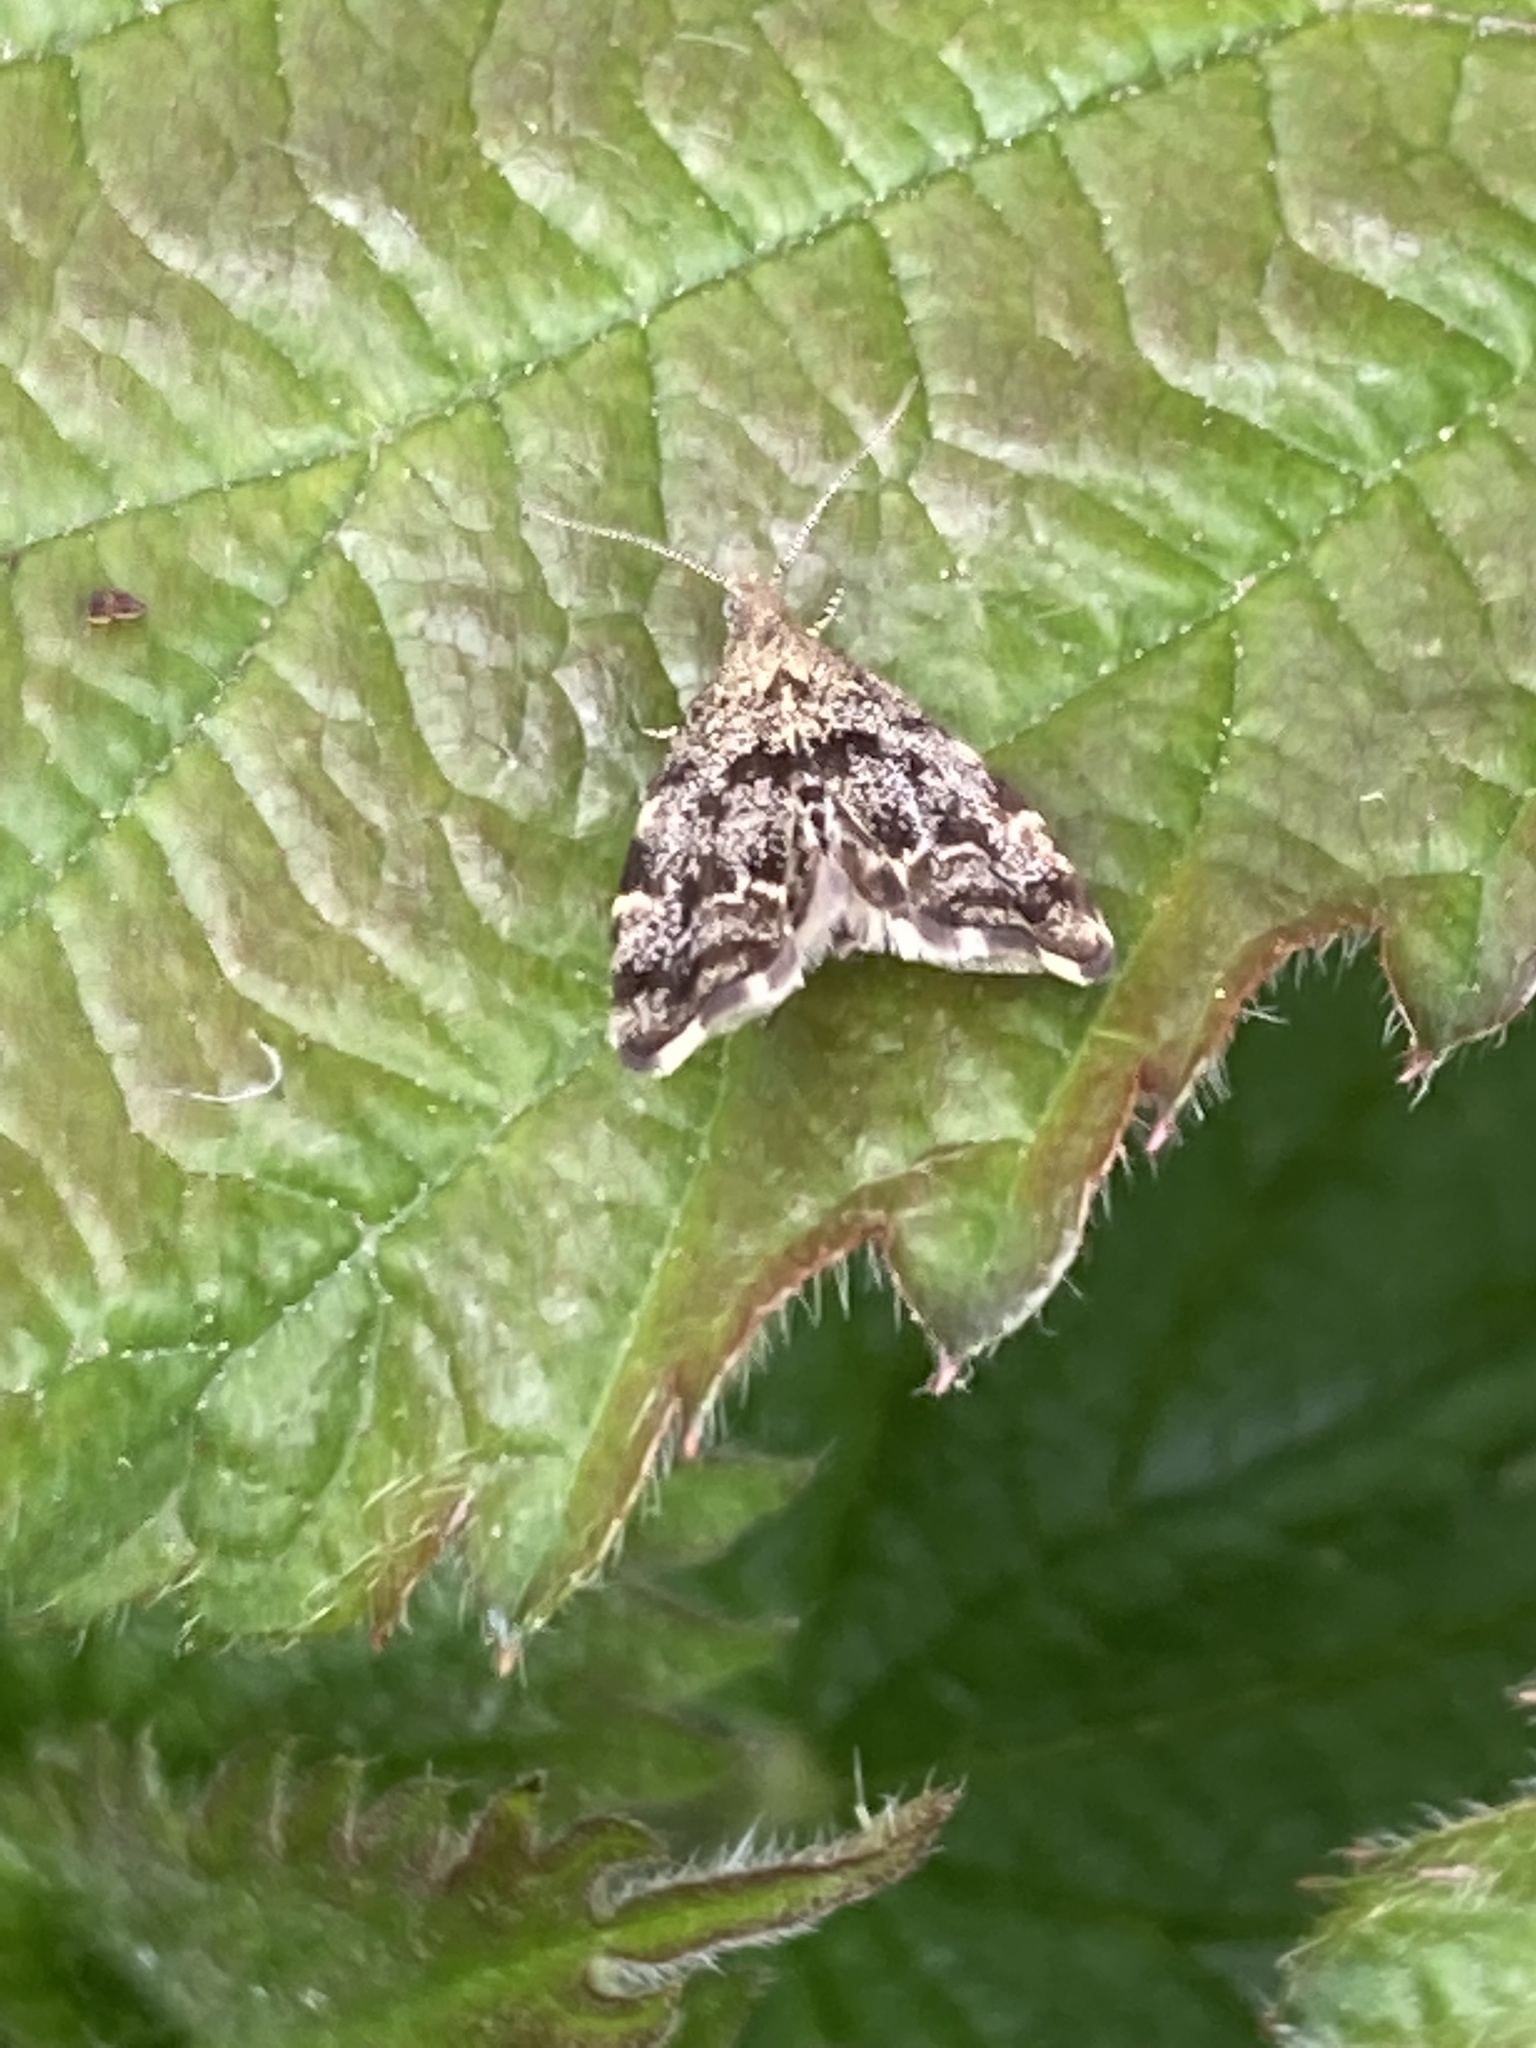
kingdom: Animalia
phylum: Arthropoda
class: Insecta
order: Lepidoptera
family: Choreutidae
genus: Anthophila
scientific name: Anthophila fabriciana
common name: Nettle-tap
